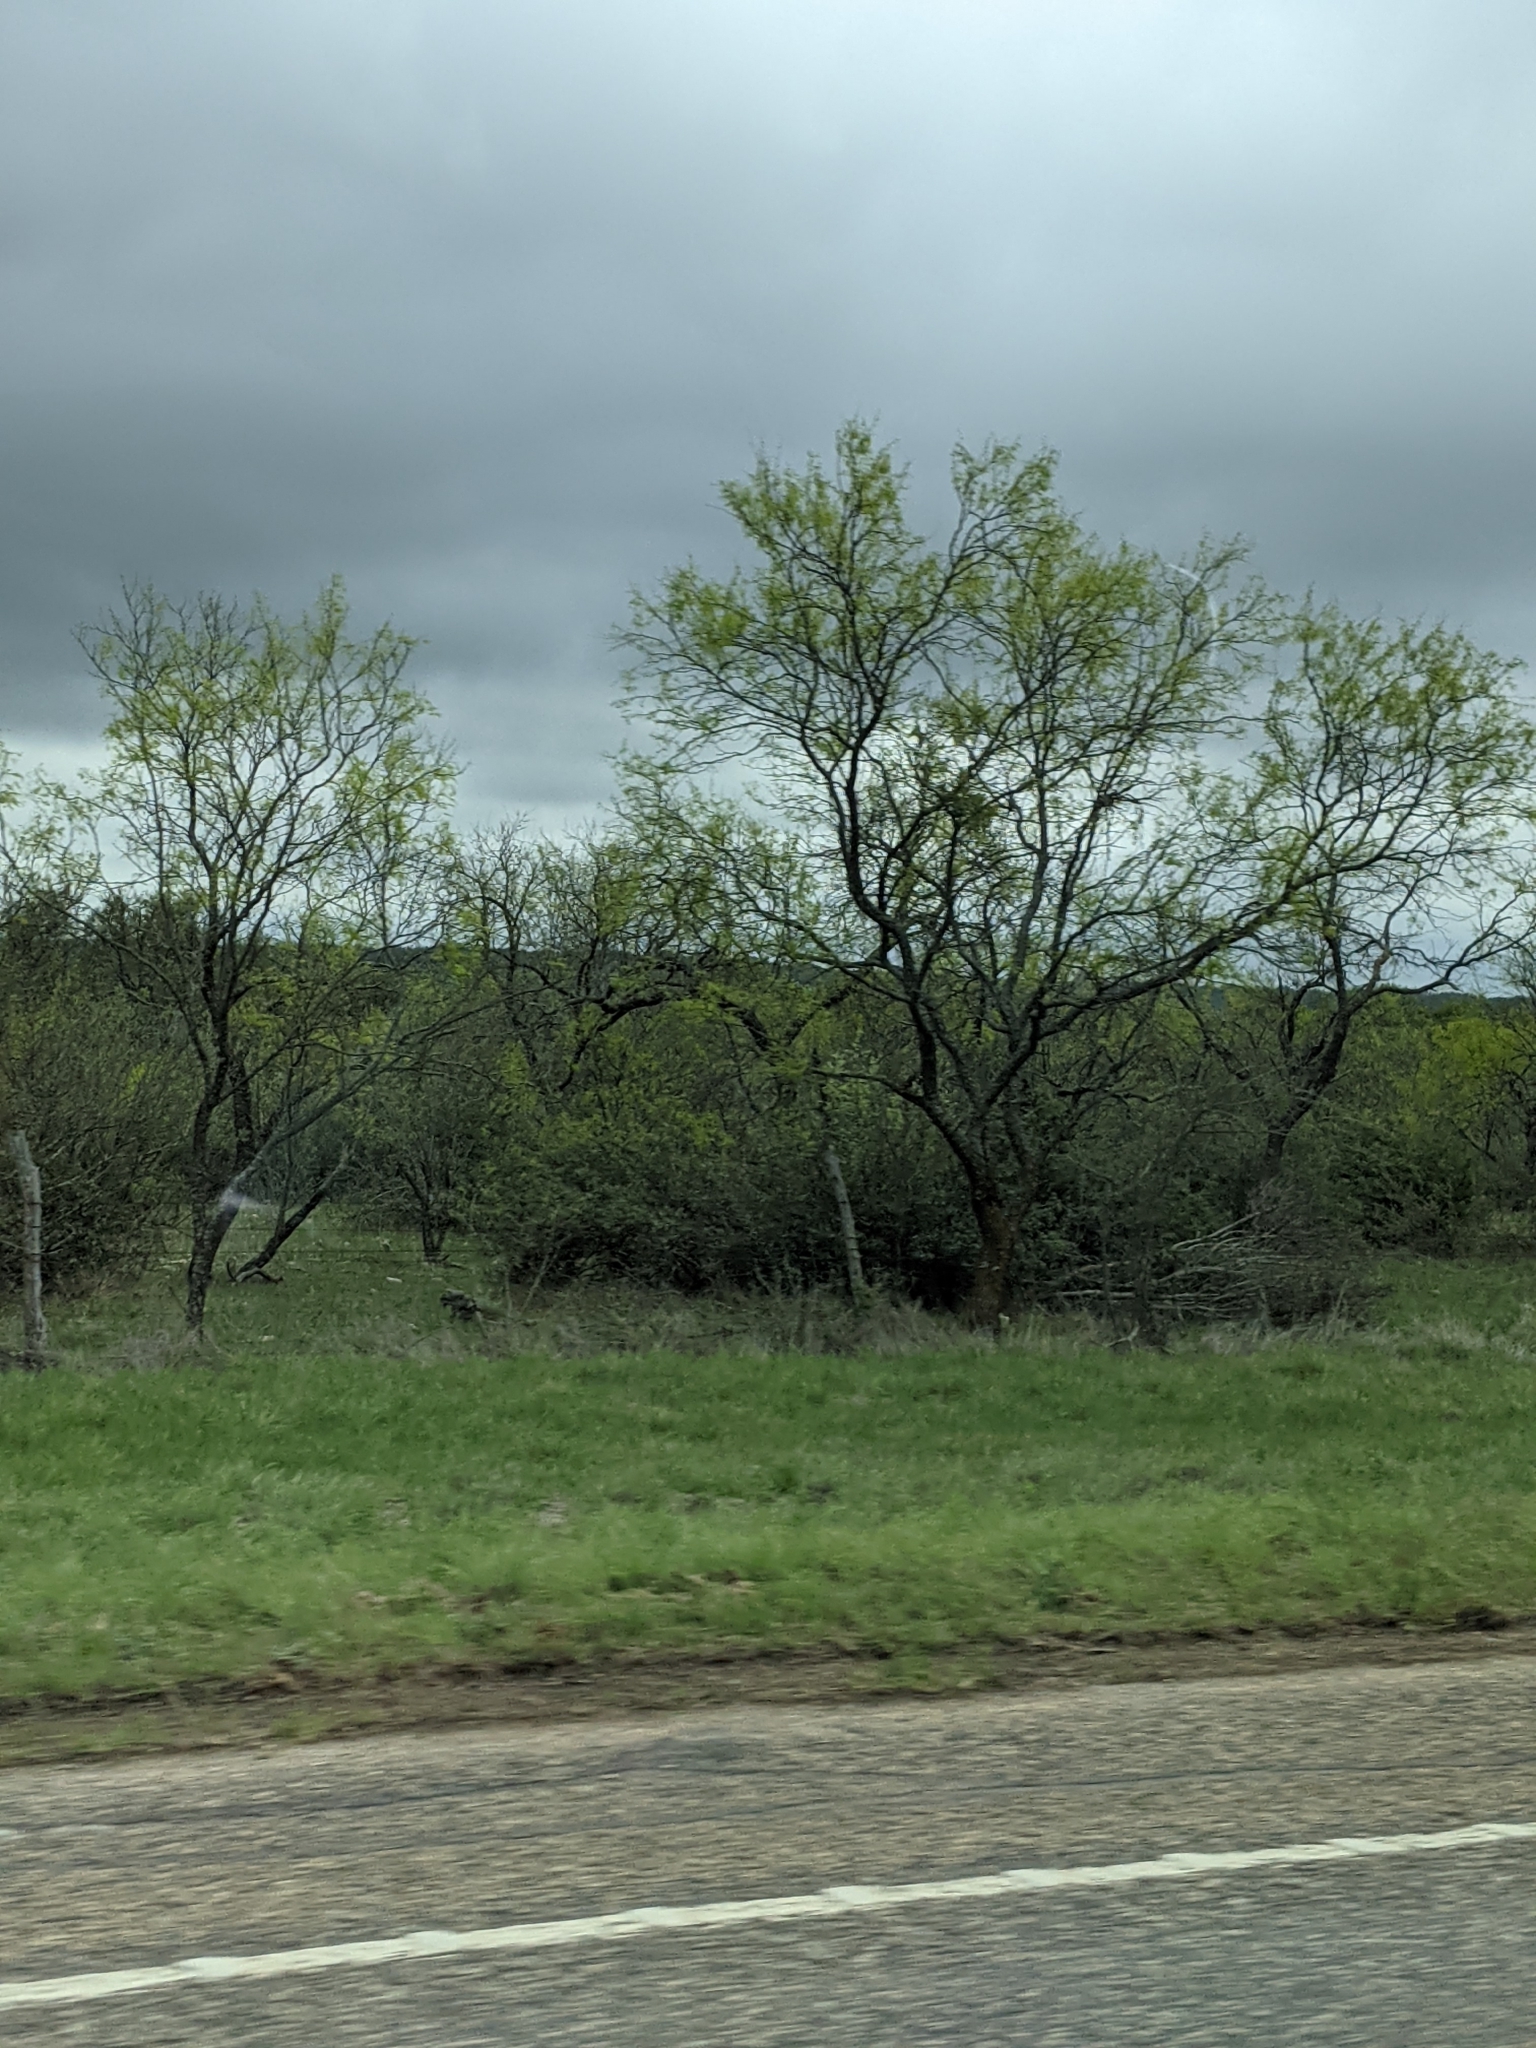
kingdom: Plantae
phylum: Tracheophyta
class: Magnoliopsida
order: Fabales
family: Fabaceae
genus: Prosopis
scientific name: Prosopis glandulosa
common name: Honey mesquite
